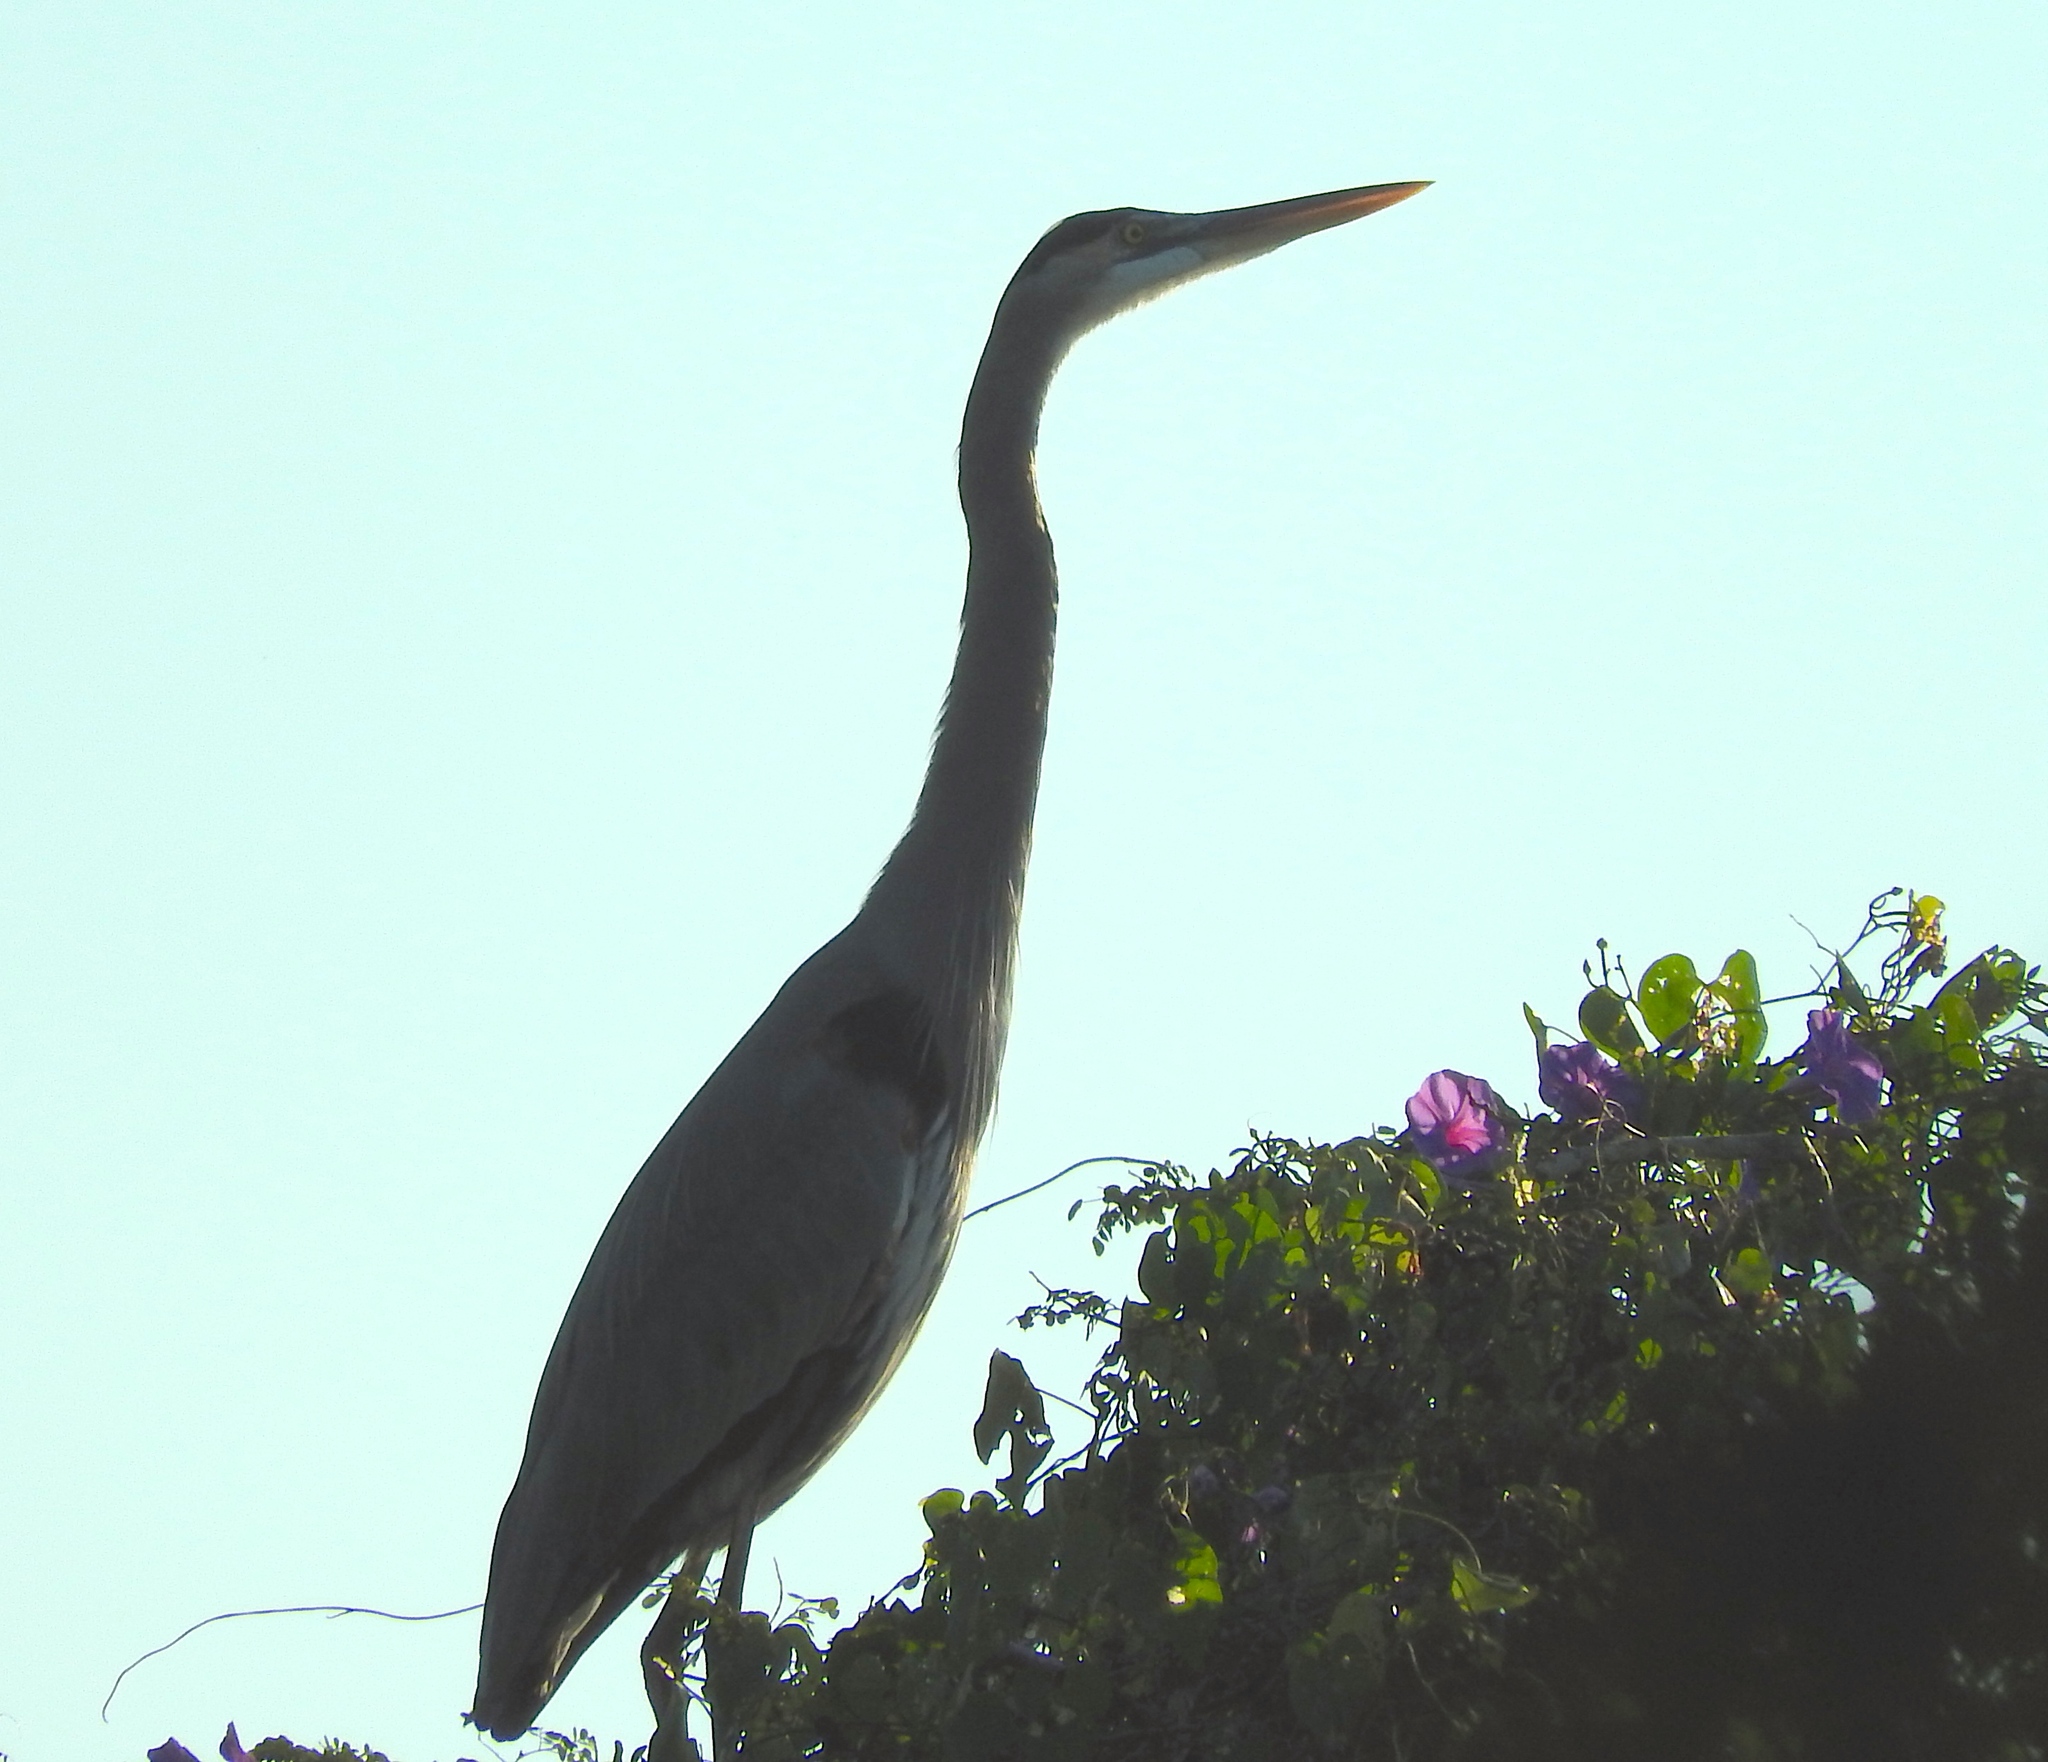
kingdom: Animalia
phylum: Chordata
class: Aves
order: Pelecaniformes
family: Ardeidae
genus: Ardea
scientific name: Ardea herodias
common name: Great blue heron
